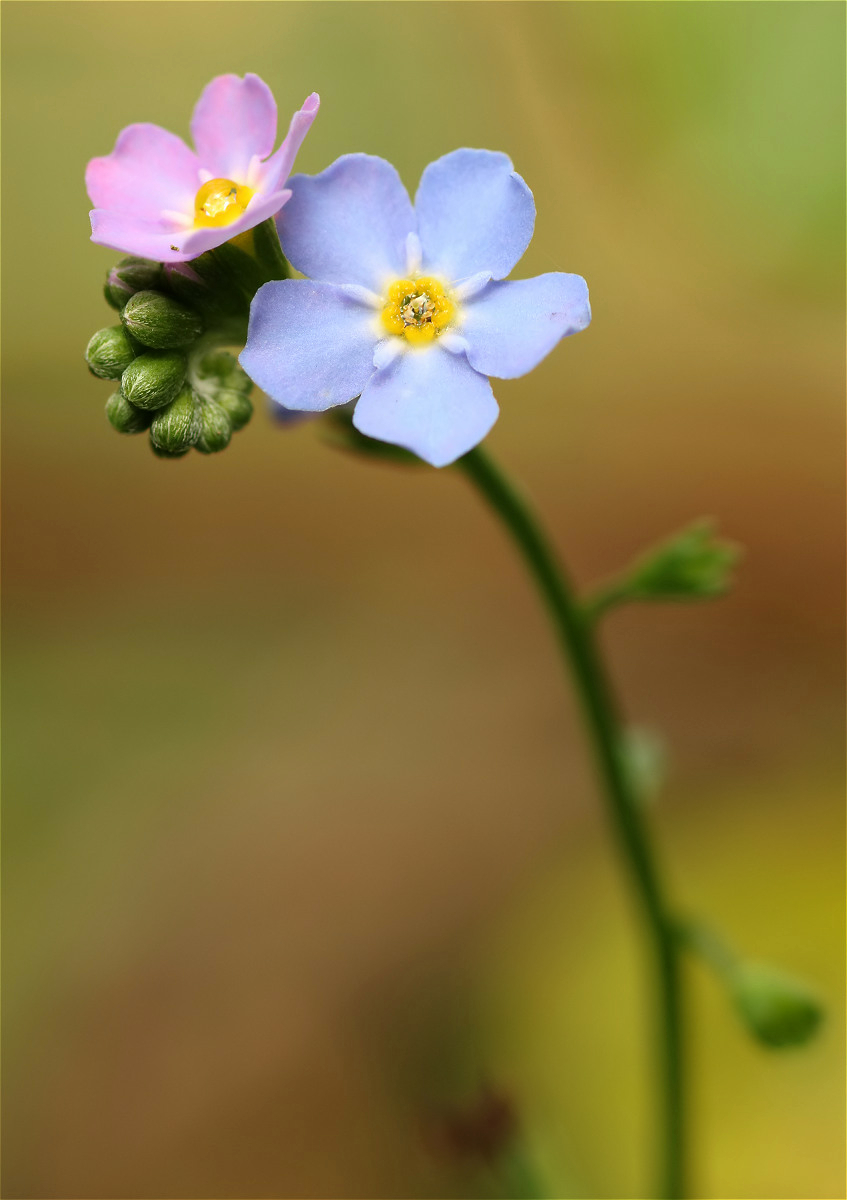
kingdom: Plantae
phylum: Tracheophyta
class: Magnoliopsida
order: Boraginales
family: Boraginaceae
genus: Myosotis
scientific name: Myosotis scorpioides
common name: Water forget-me-not
